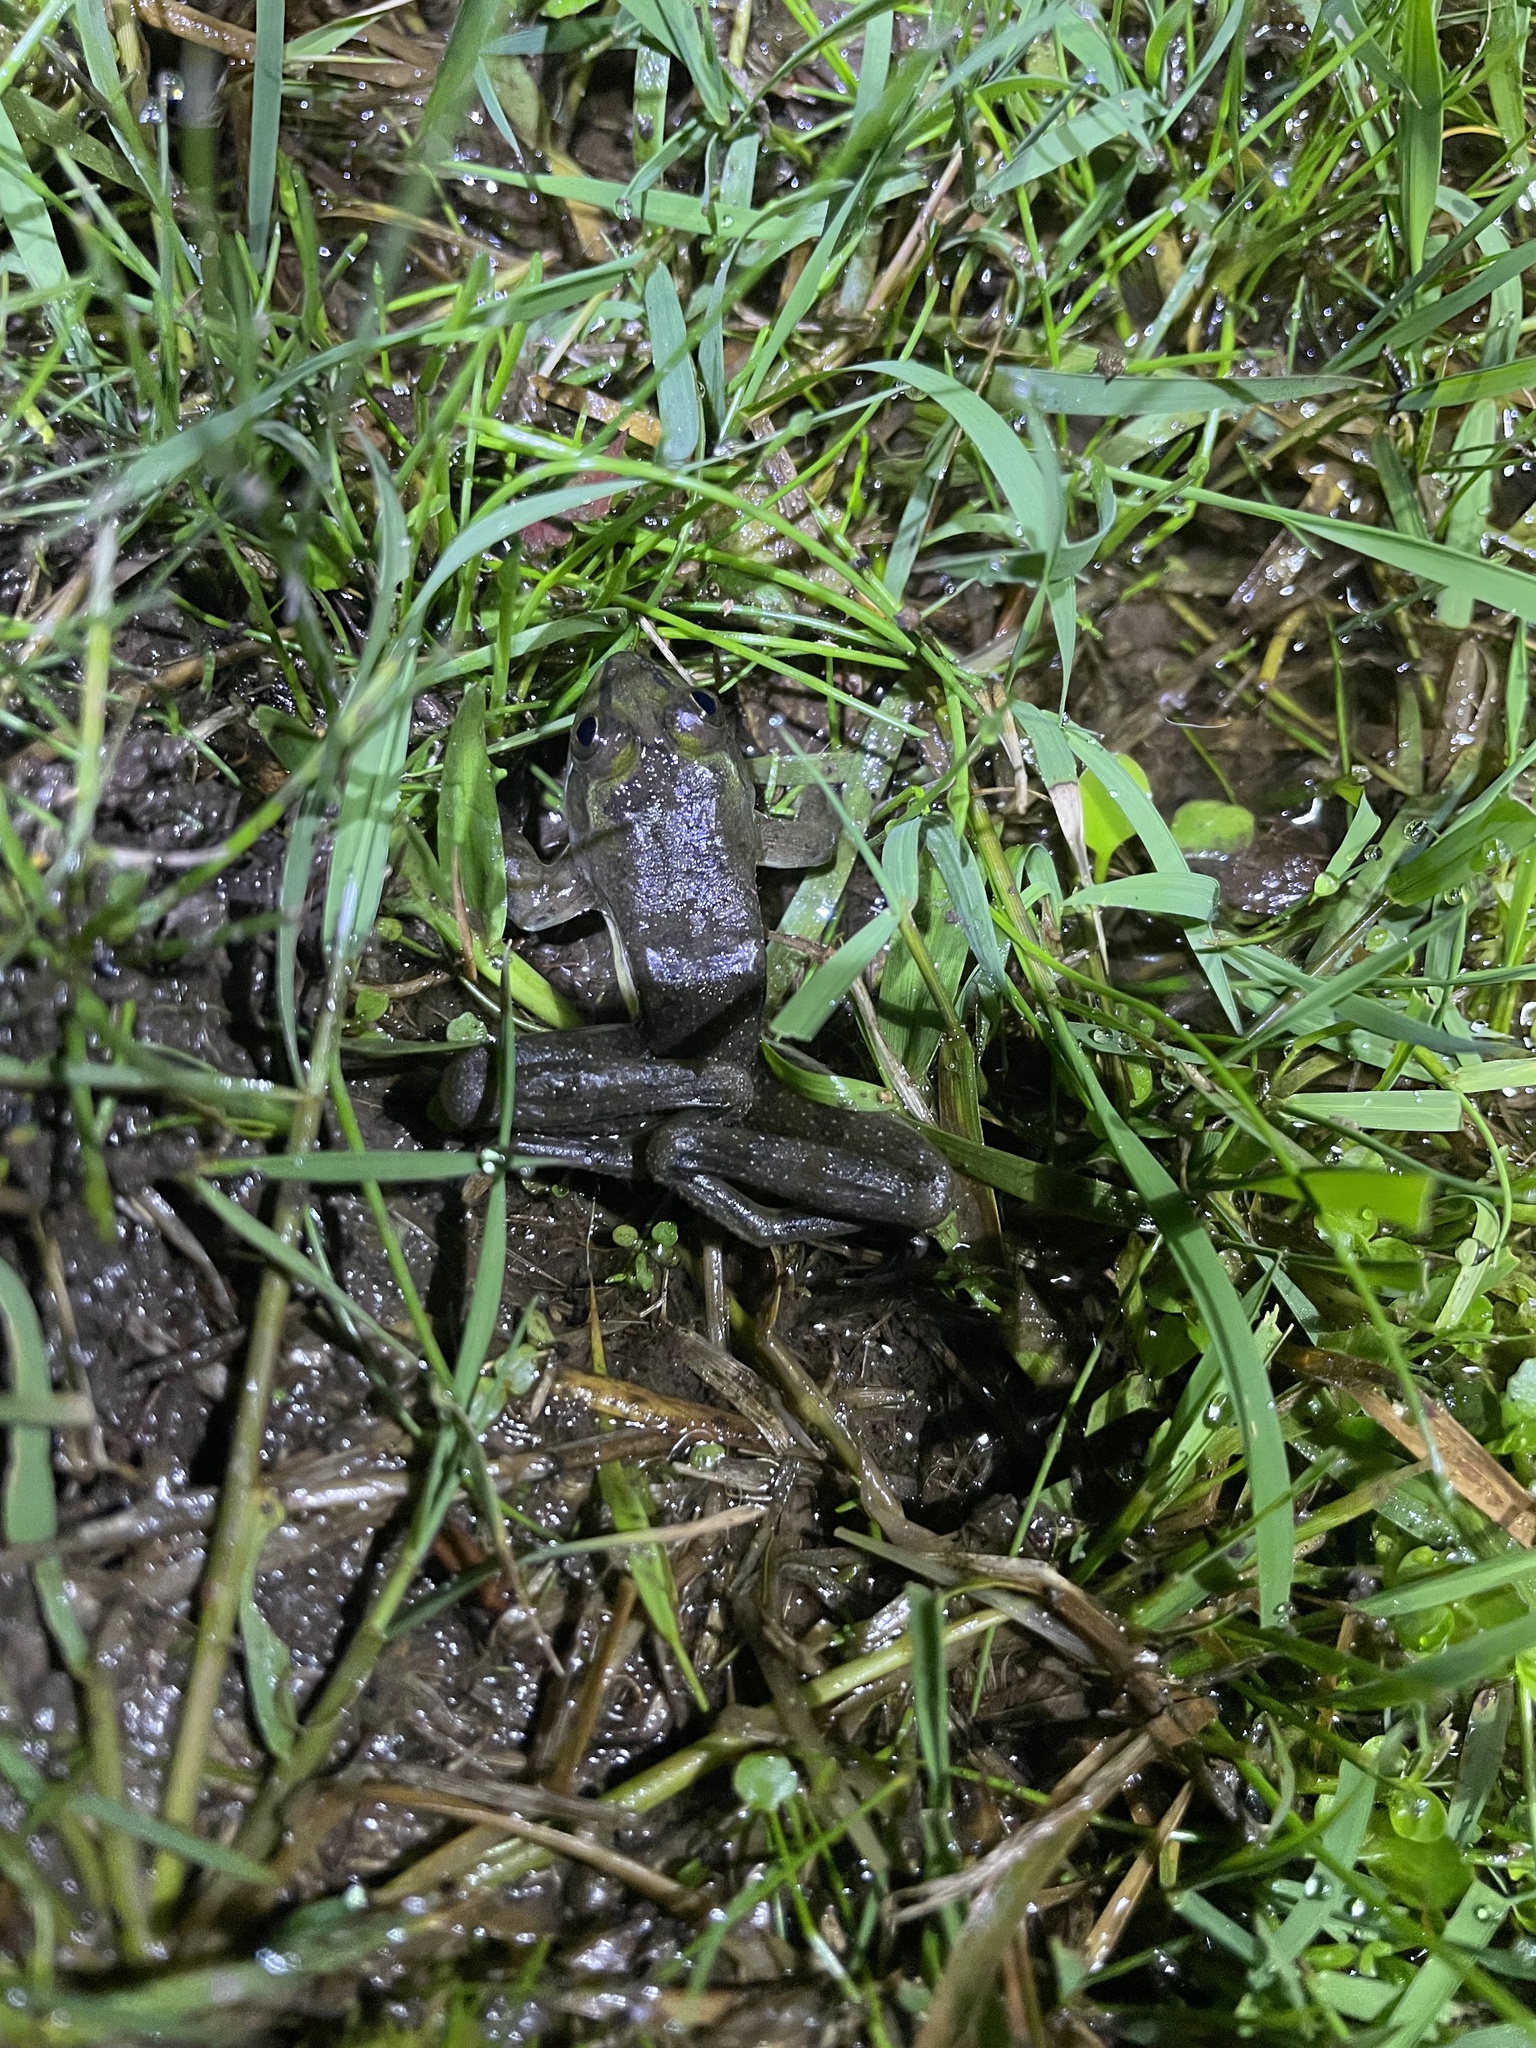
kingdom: Animalia
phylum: Chordata
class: Amphibia
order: Anura
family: Hylidae
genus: Pseudis
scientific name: Pseudis minuta
